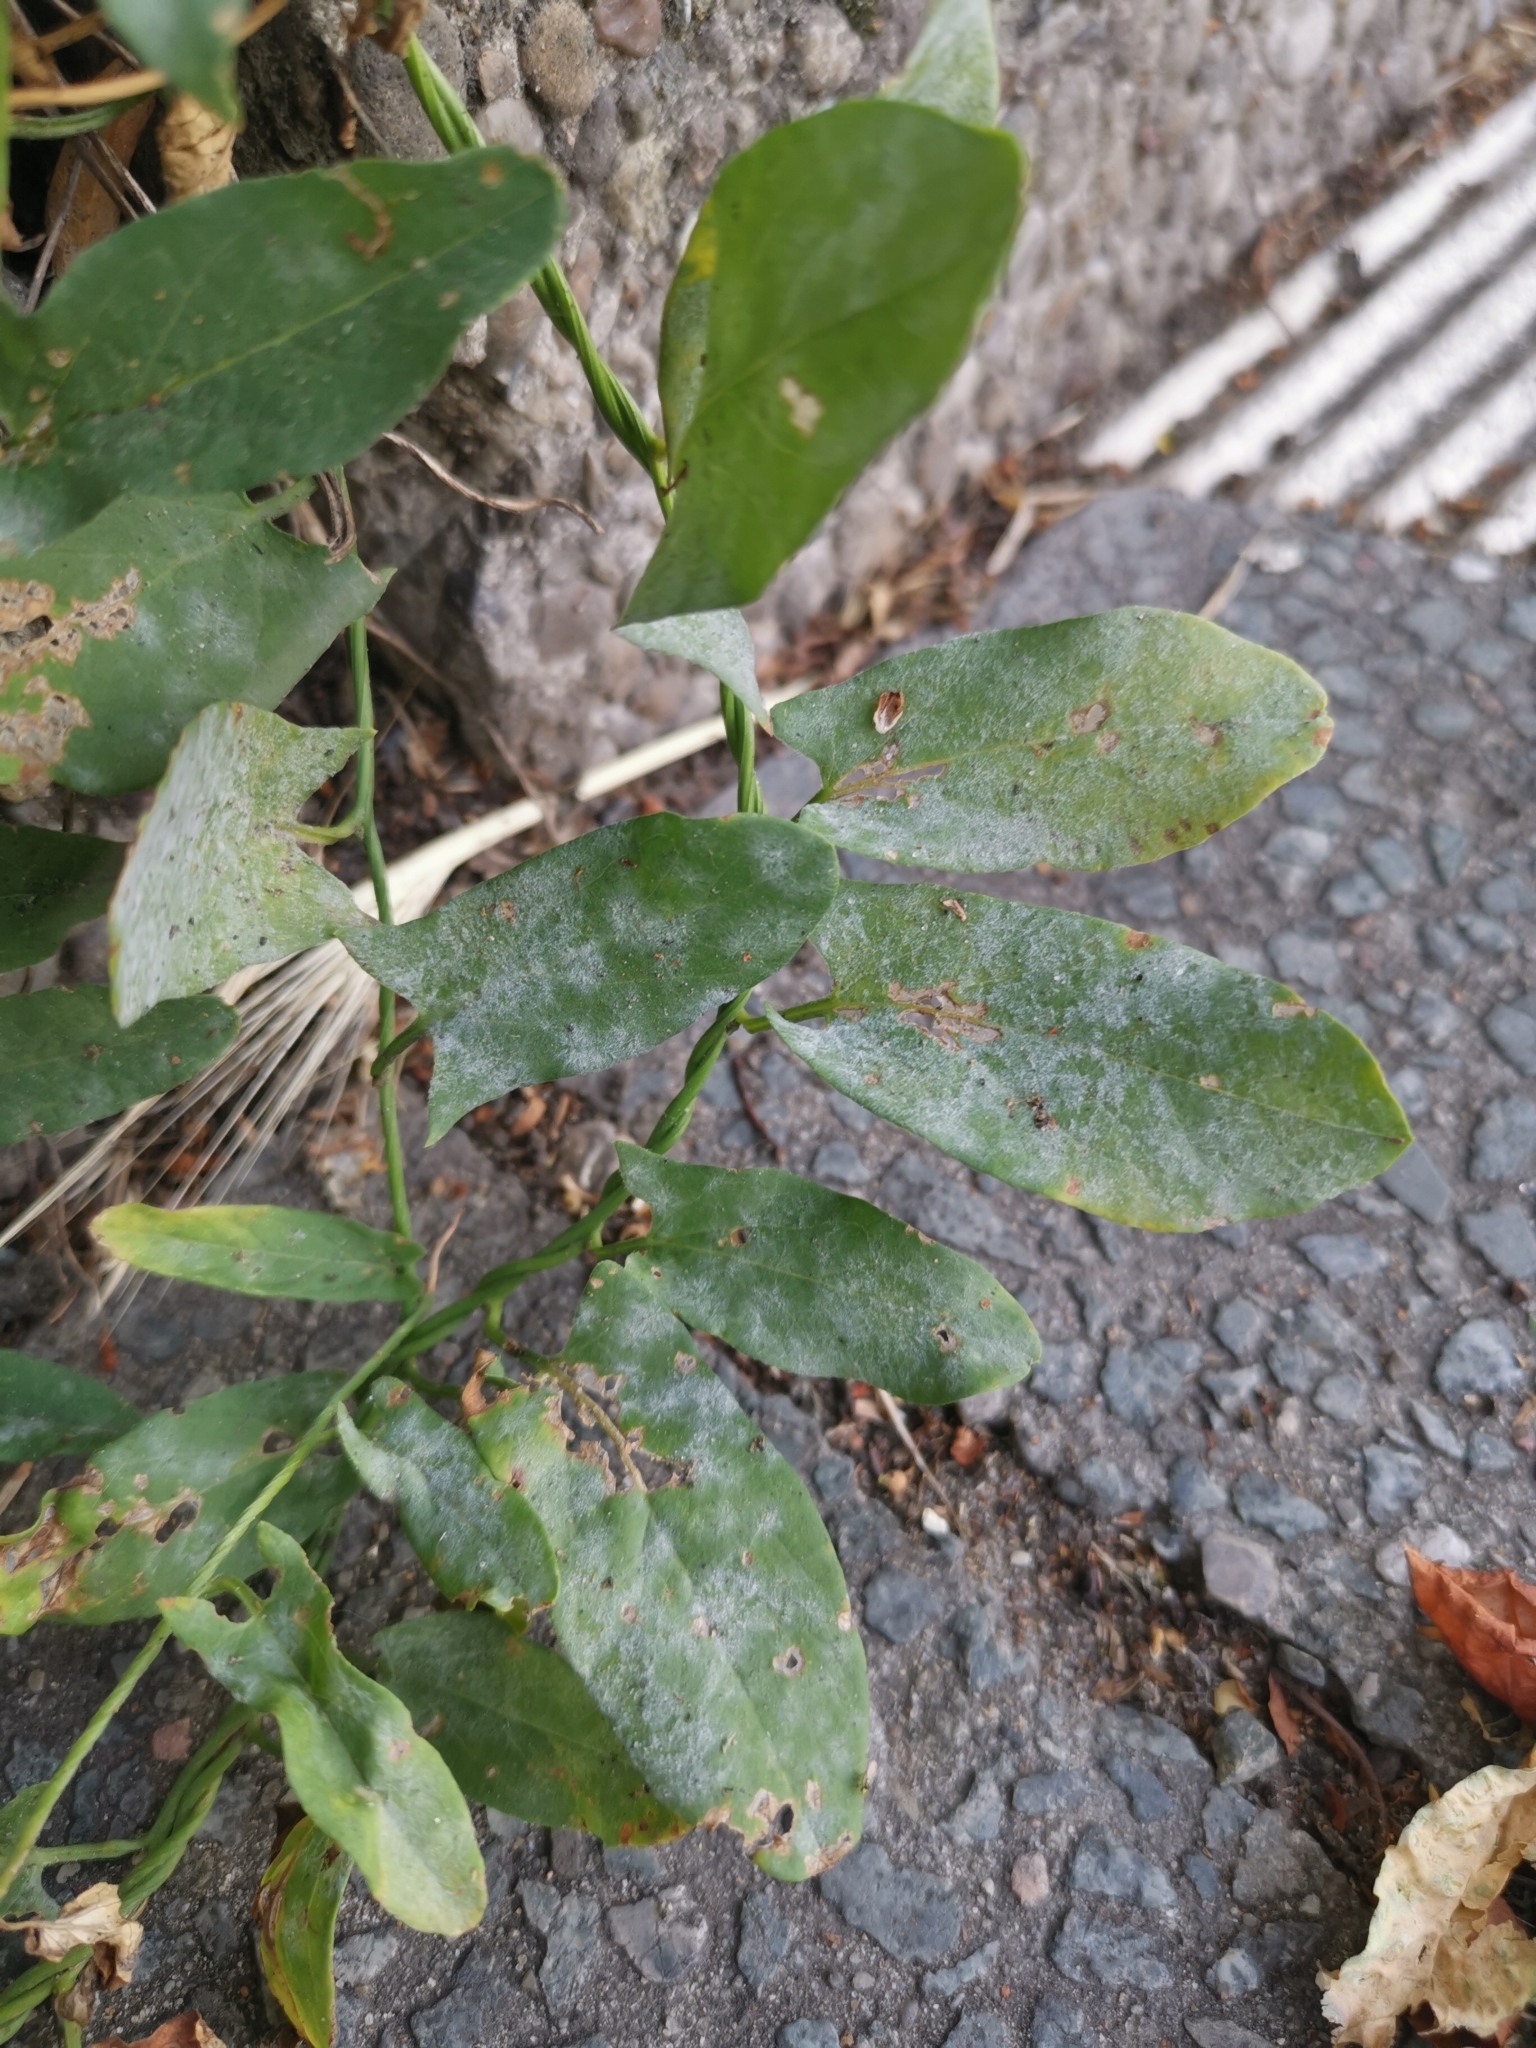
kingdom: Plantae
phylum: Tracheophyta
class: Magnoliopsida
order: Solanales
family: Convolvulaceae
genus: Convolvulus
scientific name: Convolvulus arvensis
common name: Field bindweed
